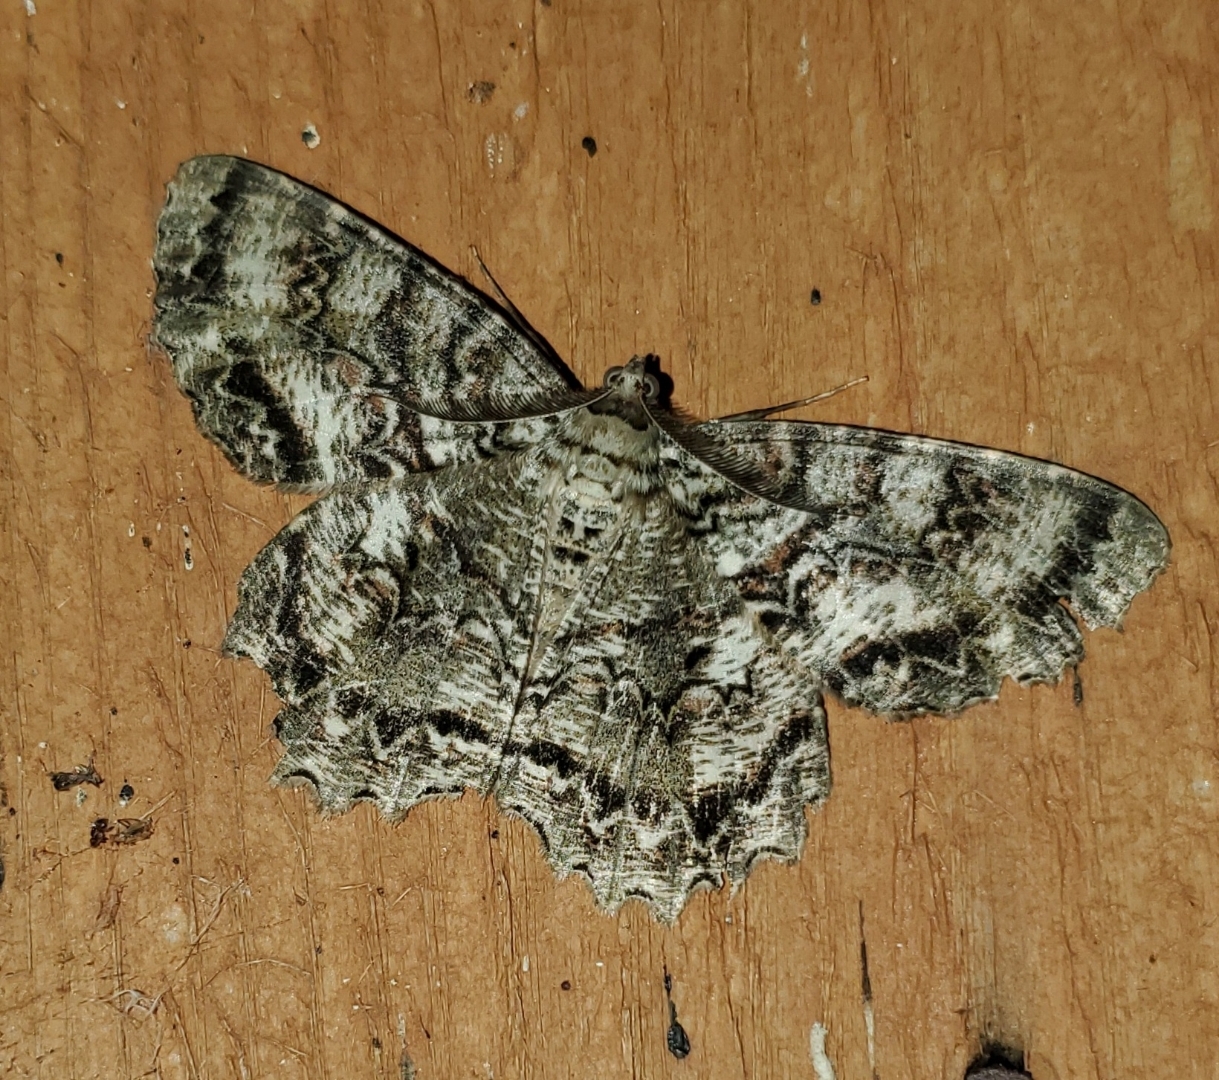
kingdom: Animalia
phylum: Arthropoda
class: Insecta
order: Lepidoptera
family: Geometridae
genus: Epimecis
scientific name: Epimecis hortaria
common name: Tulip-tree beauty
